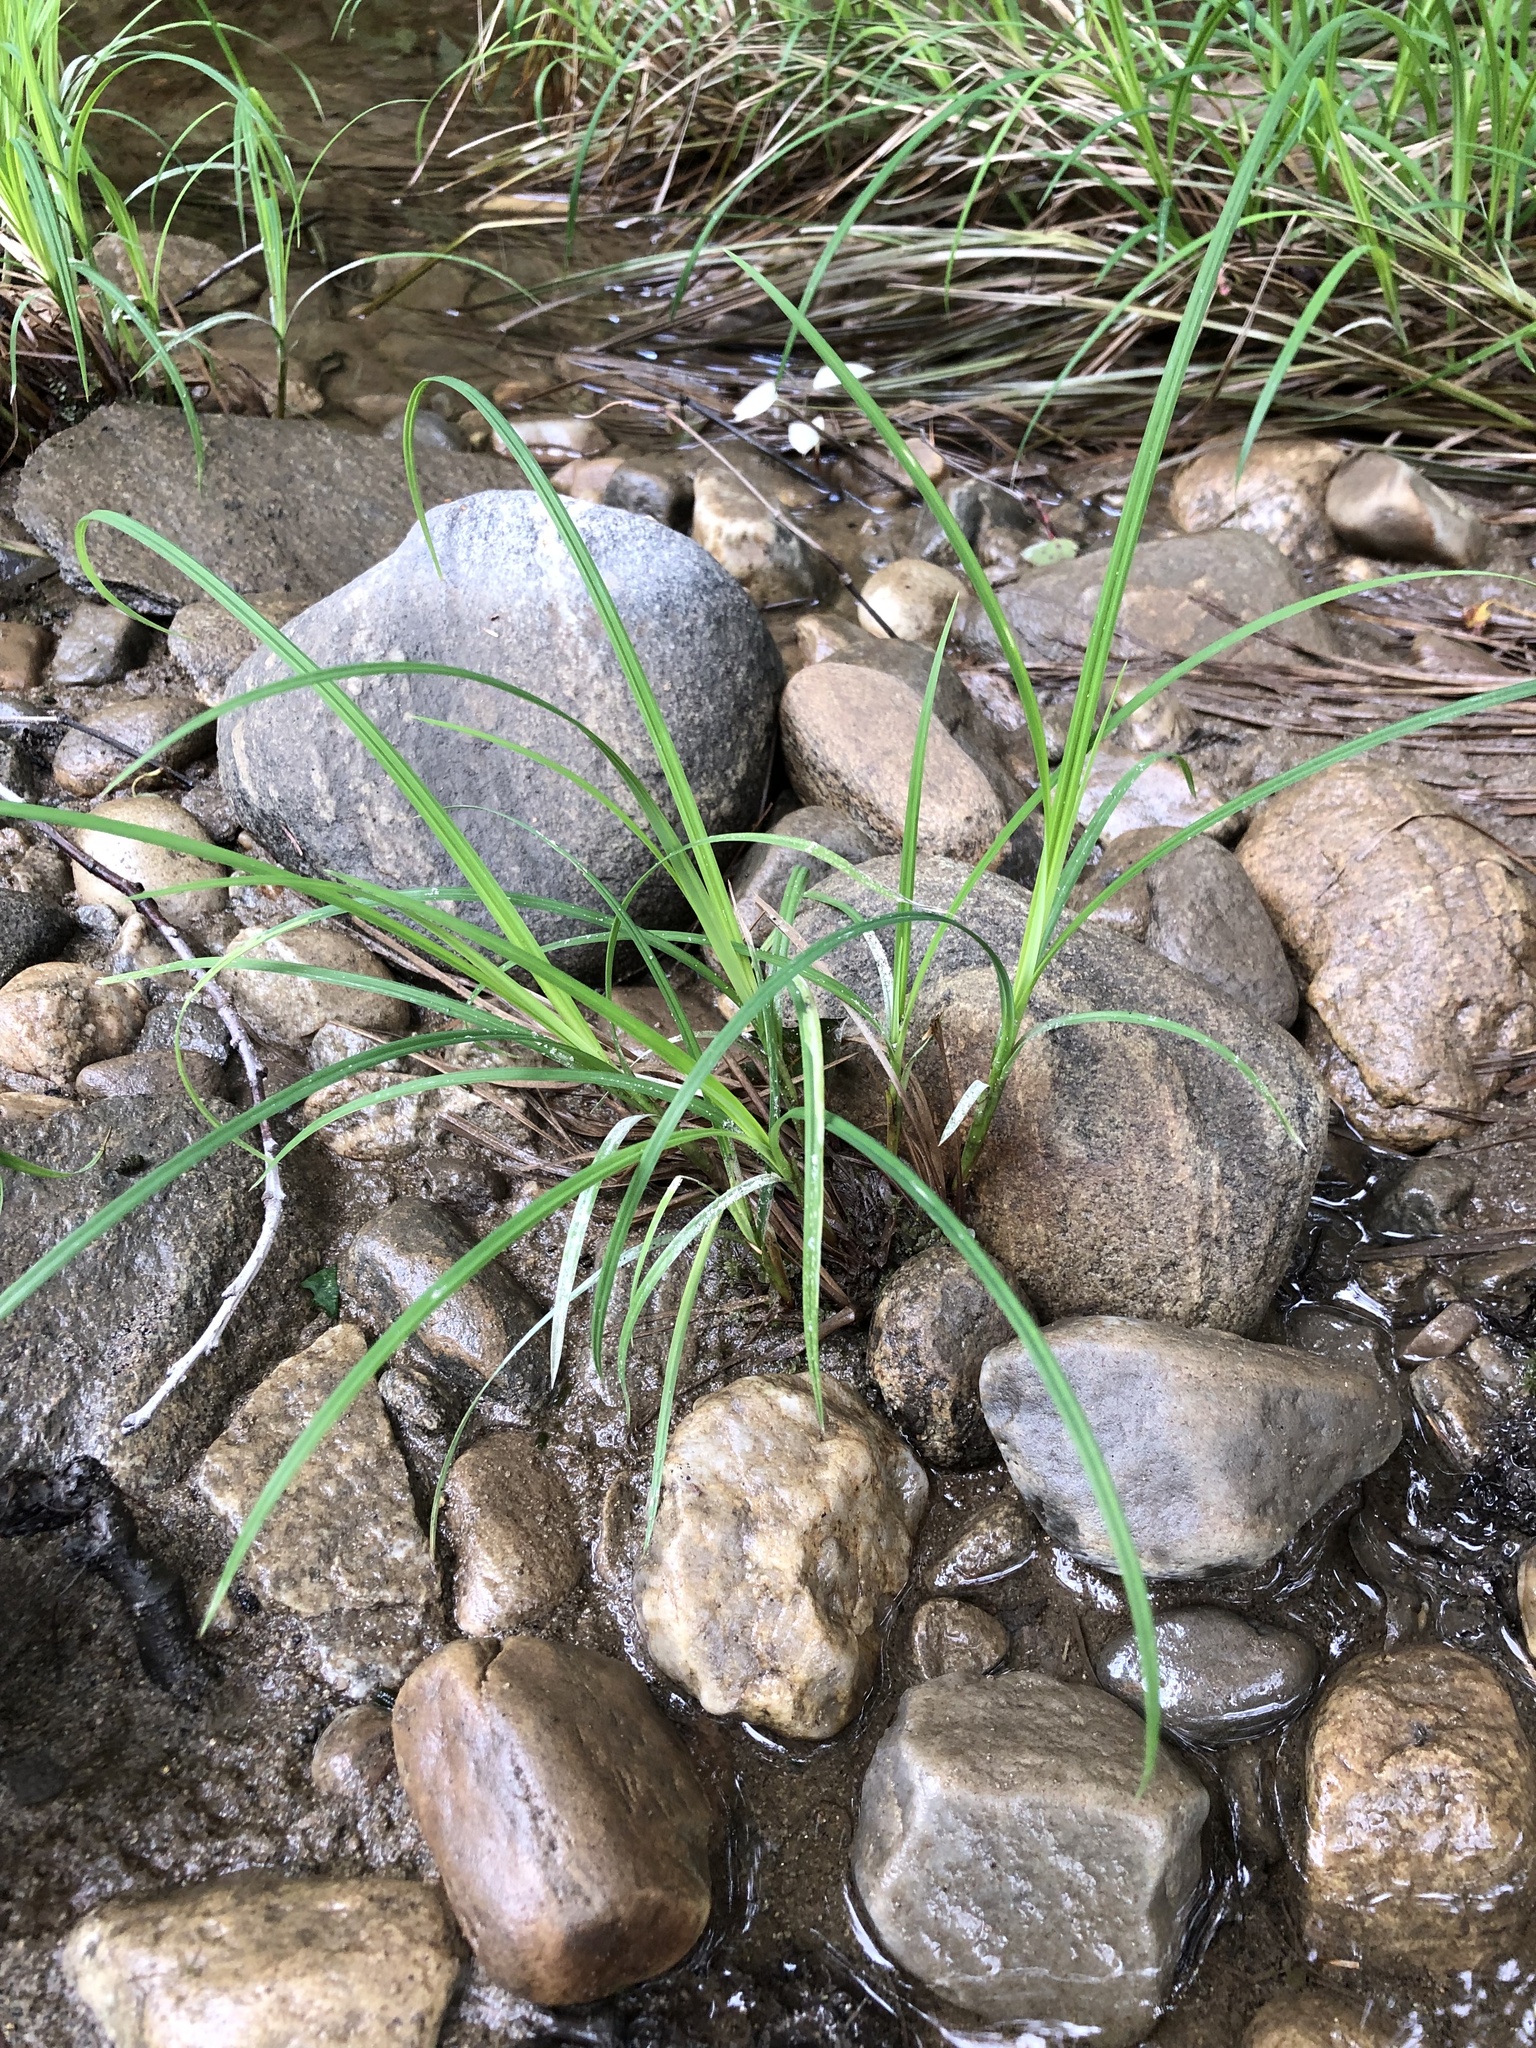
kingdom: Plantae
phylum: Tracheophyta
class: Liliopsida
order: Poales
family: Cyperaceae
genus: Carex
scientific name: Carex torta
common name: Twisted sedge
